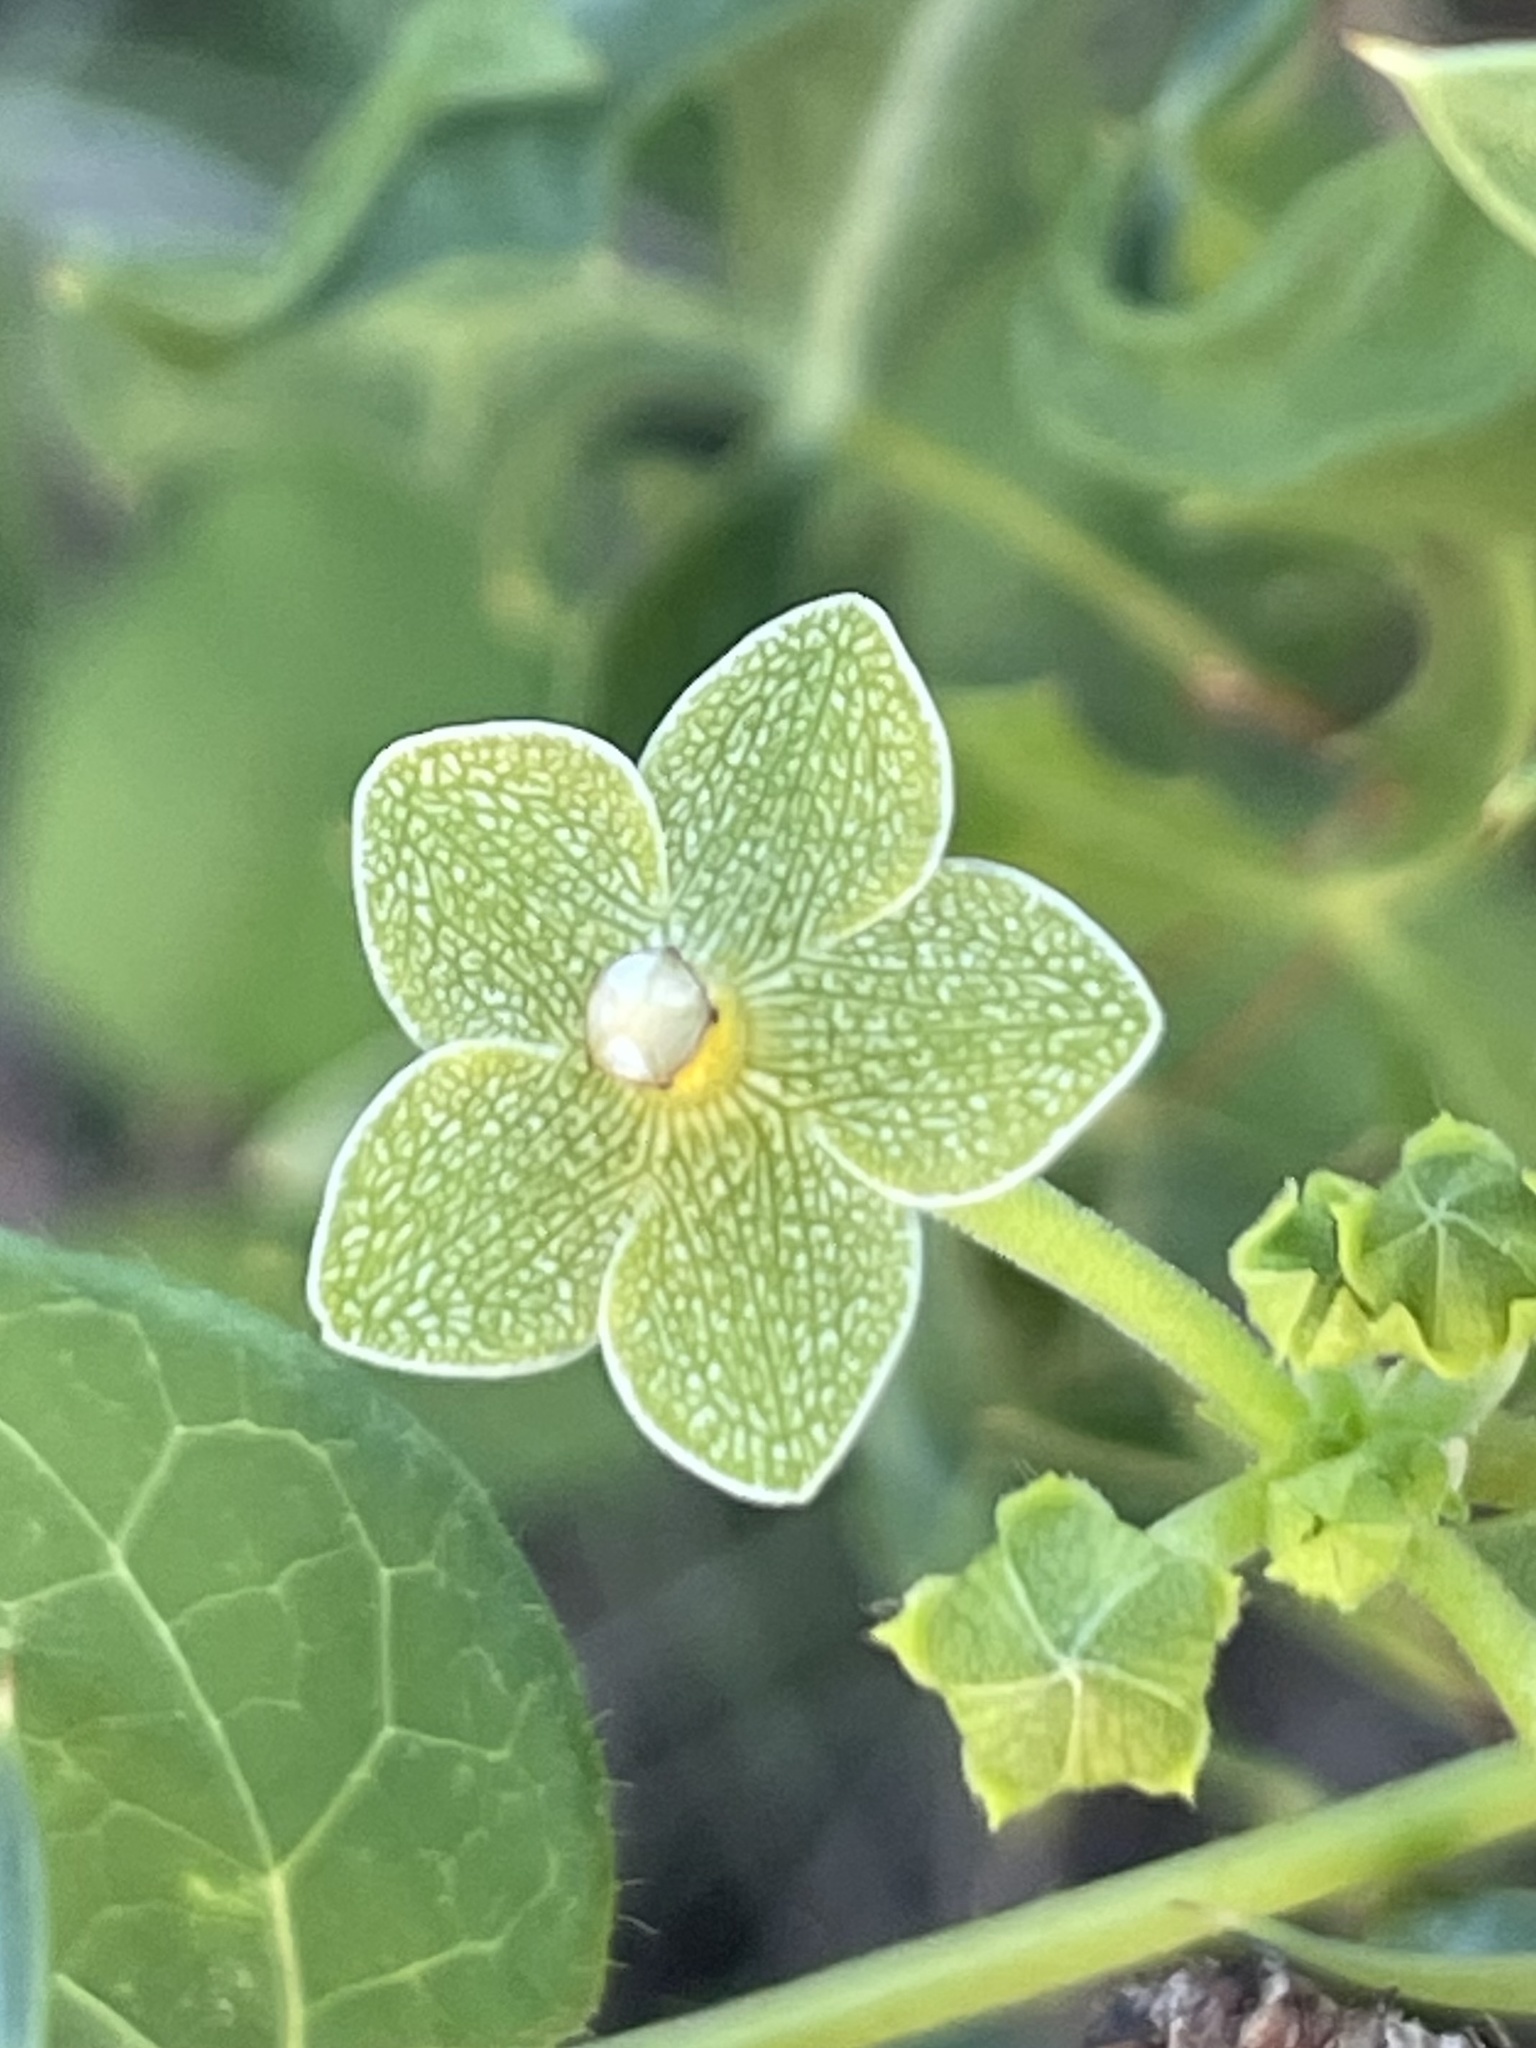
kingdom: Plantae
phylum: Tracheophyta
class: Magnoliopsida
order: Gentianales
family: Apocynaceae
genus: Dictyanthus
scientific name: Dictyanthus reticulatus
